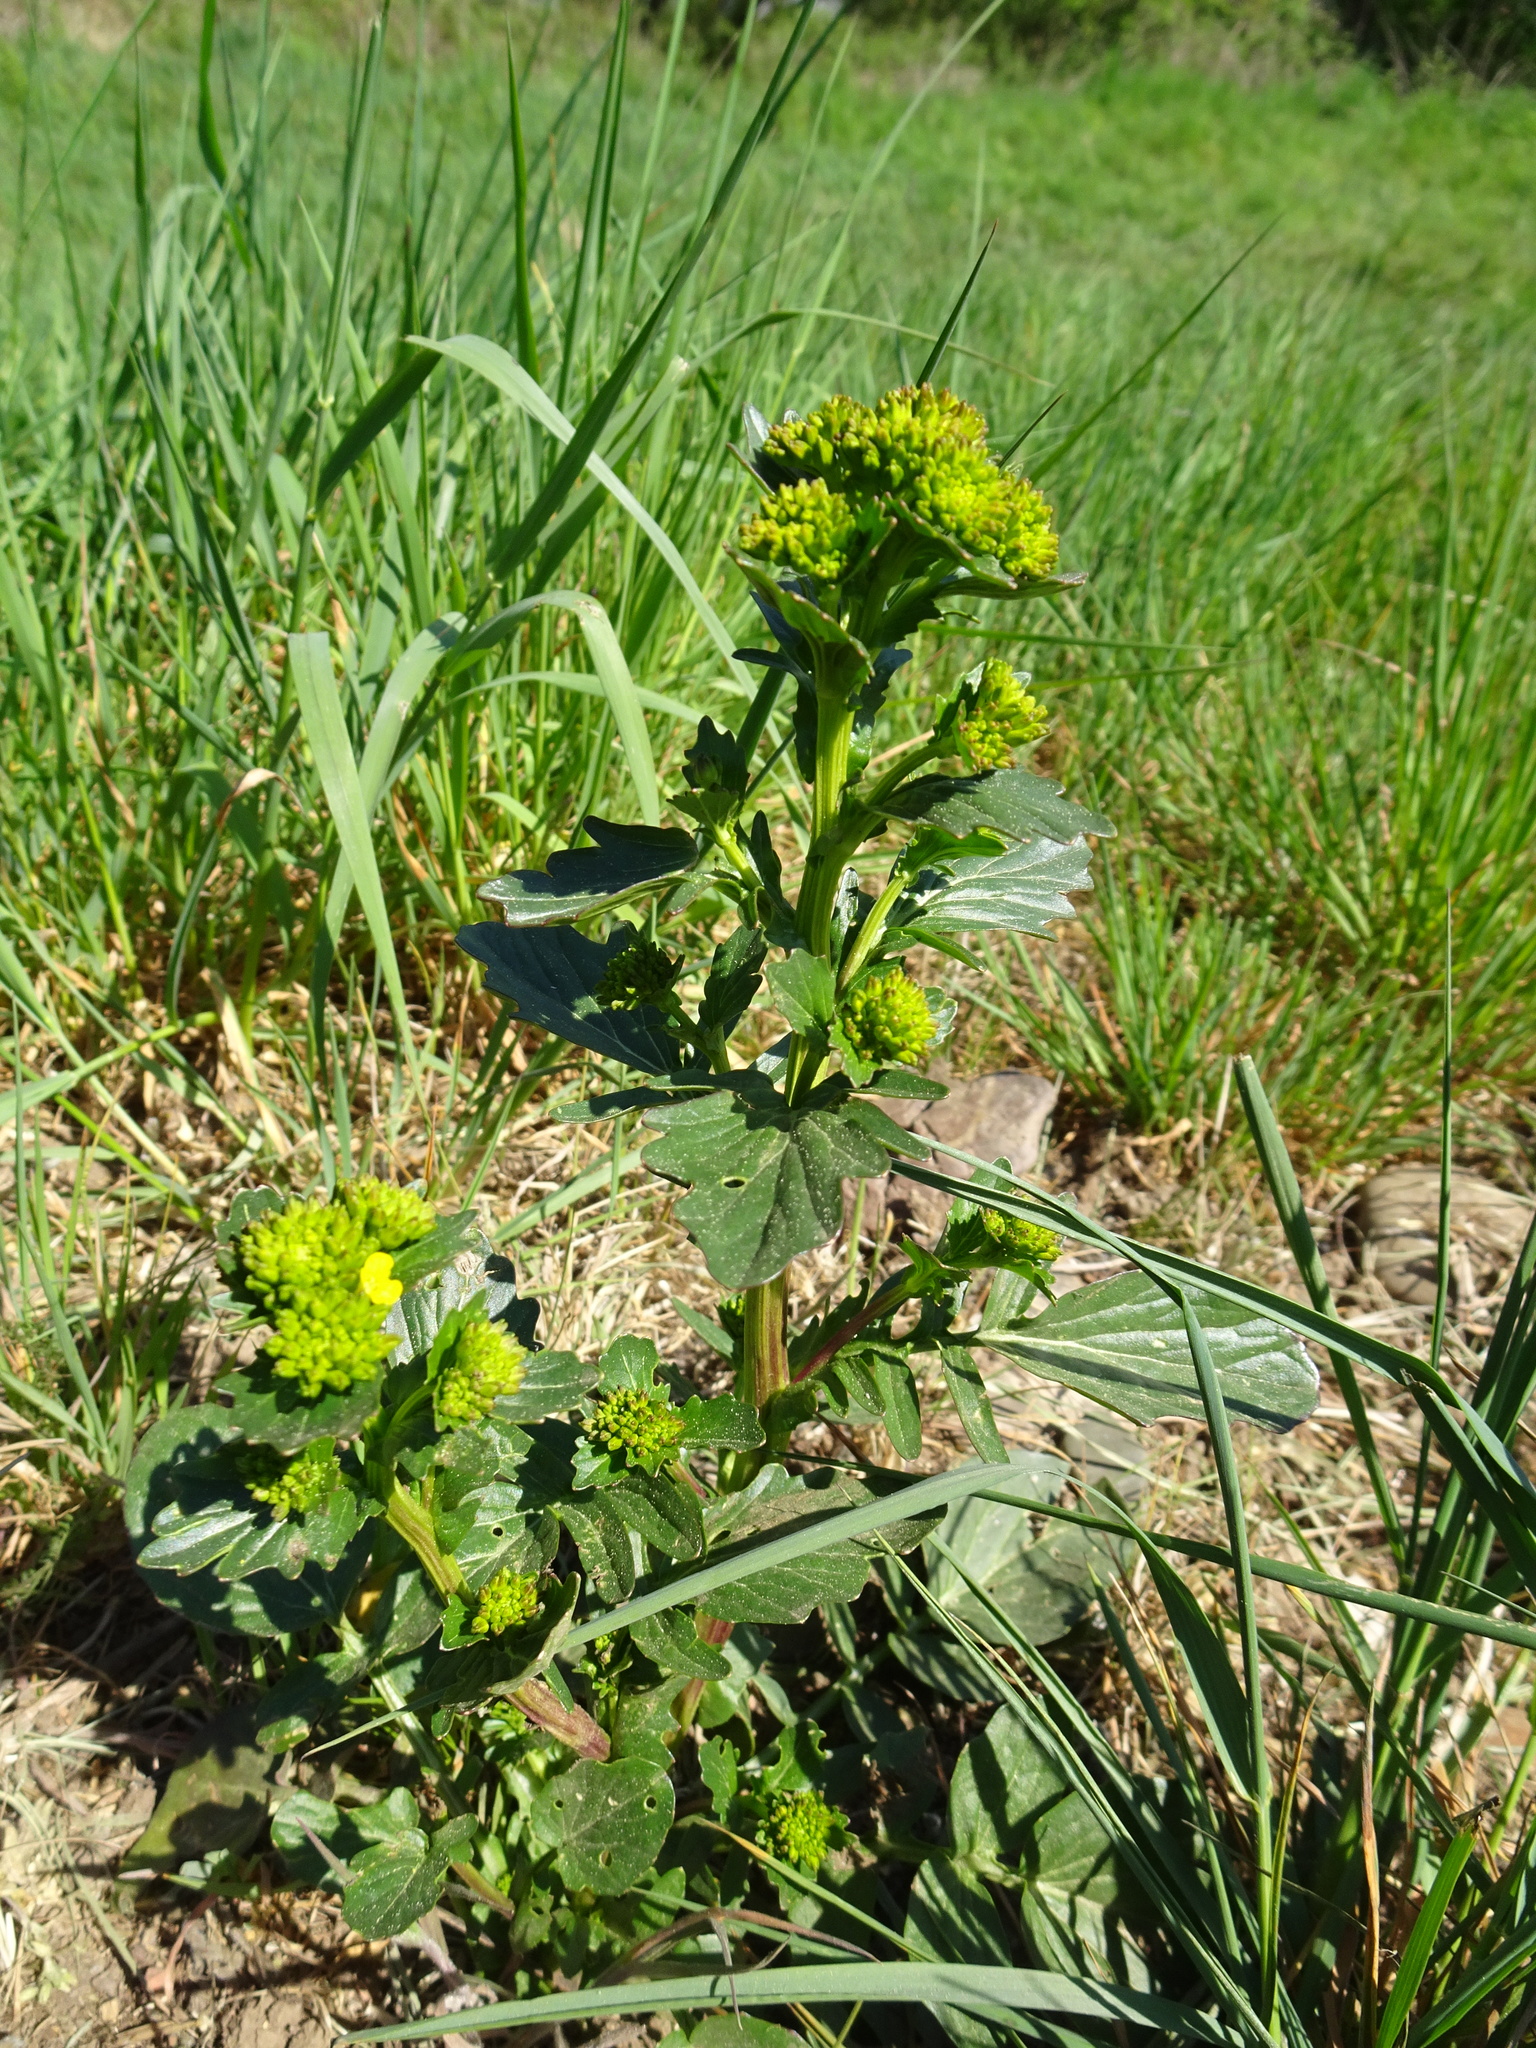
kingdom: Plantae
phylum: Tracheophyta
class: Magnoliopsida
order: Brassicales
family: Brassicaceae
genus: Barbarea
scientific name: Barbarea vulgaris
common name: Cressy-greens
